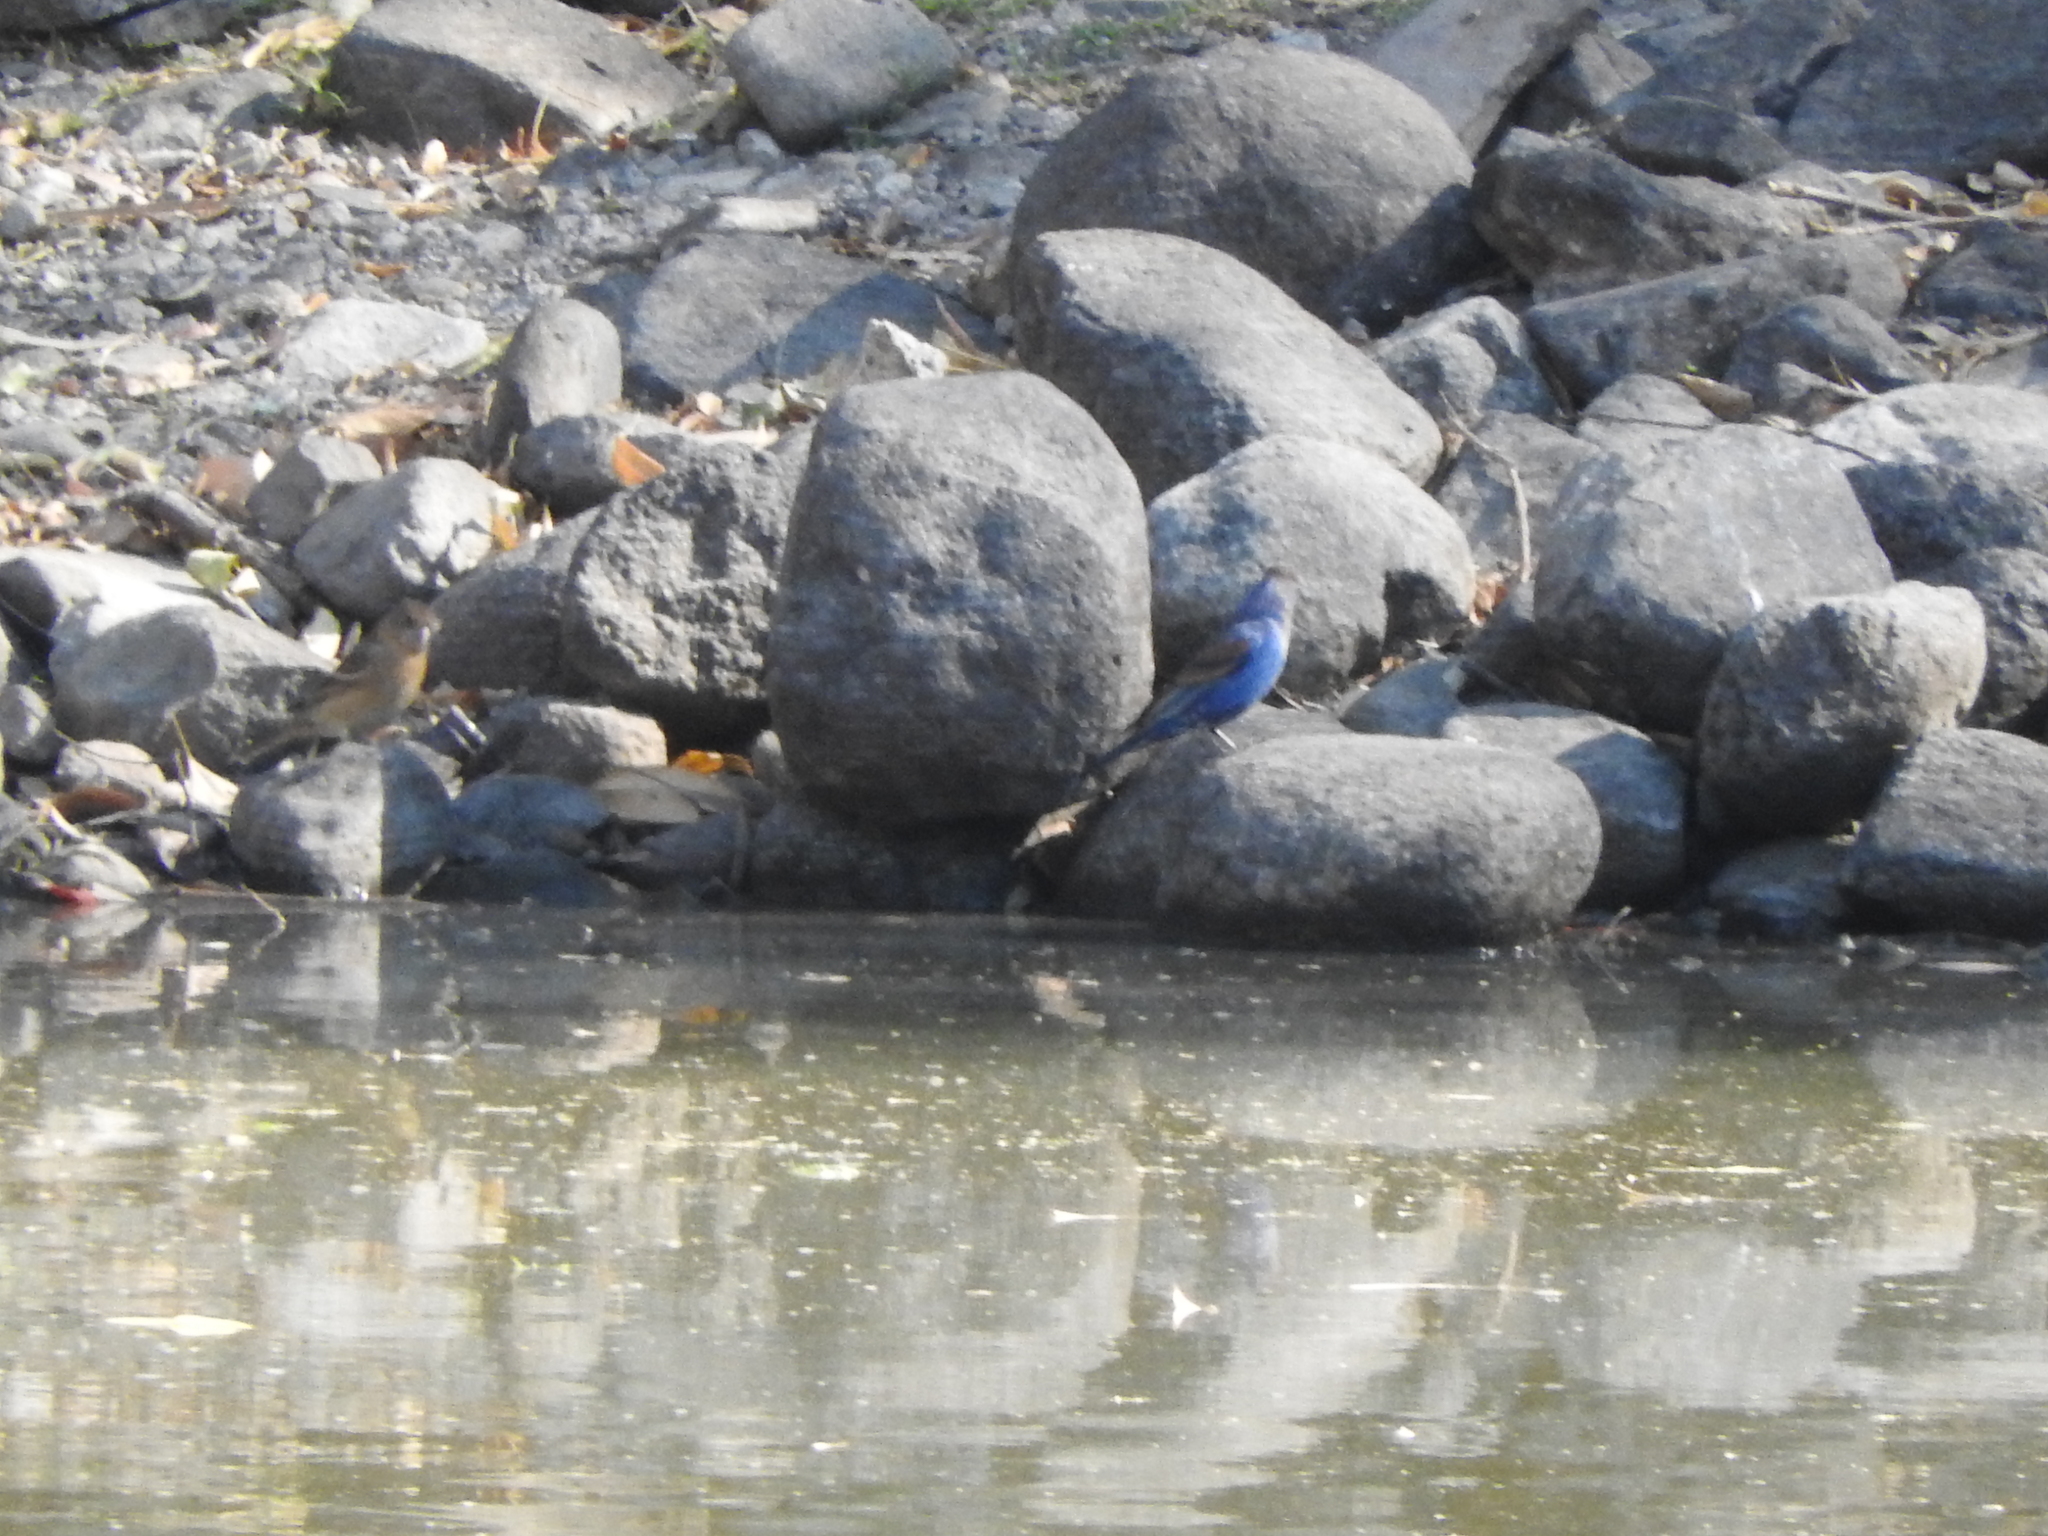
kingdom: Animalia
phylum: Chordata
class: Aves
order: Passeriformes
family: Cardinalidae
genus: Passerina
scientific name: Passerina caerulea
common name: Blue grosbeak
